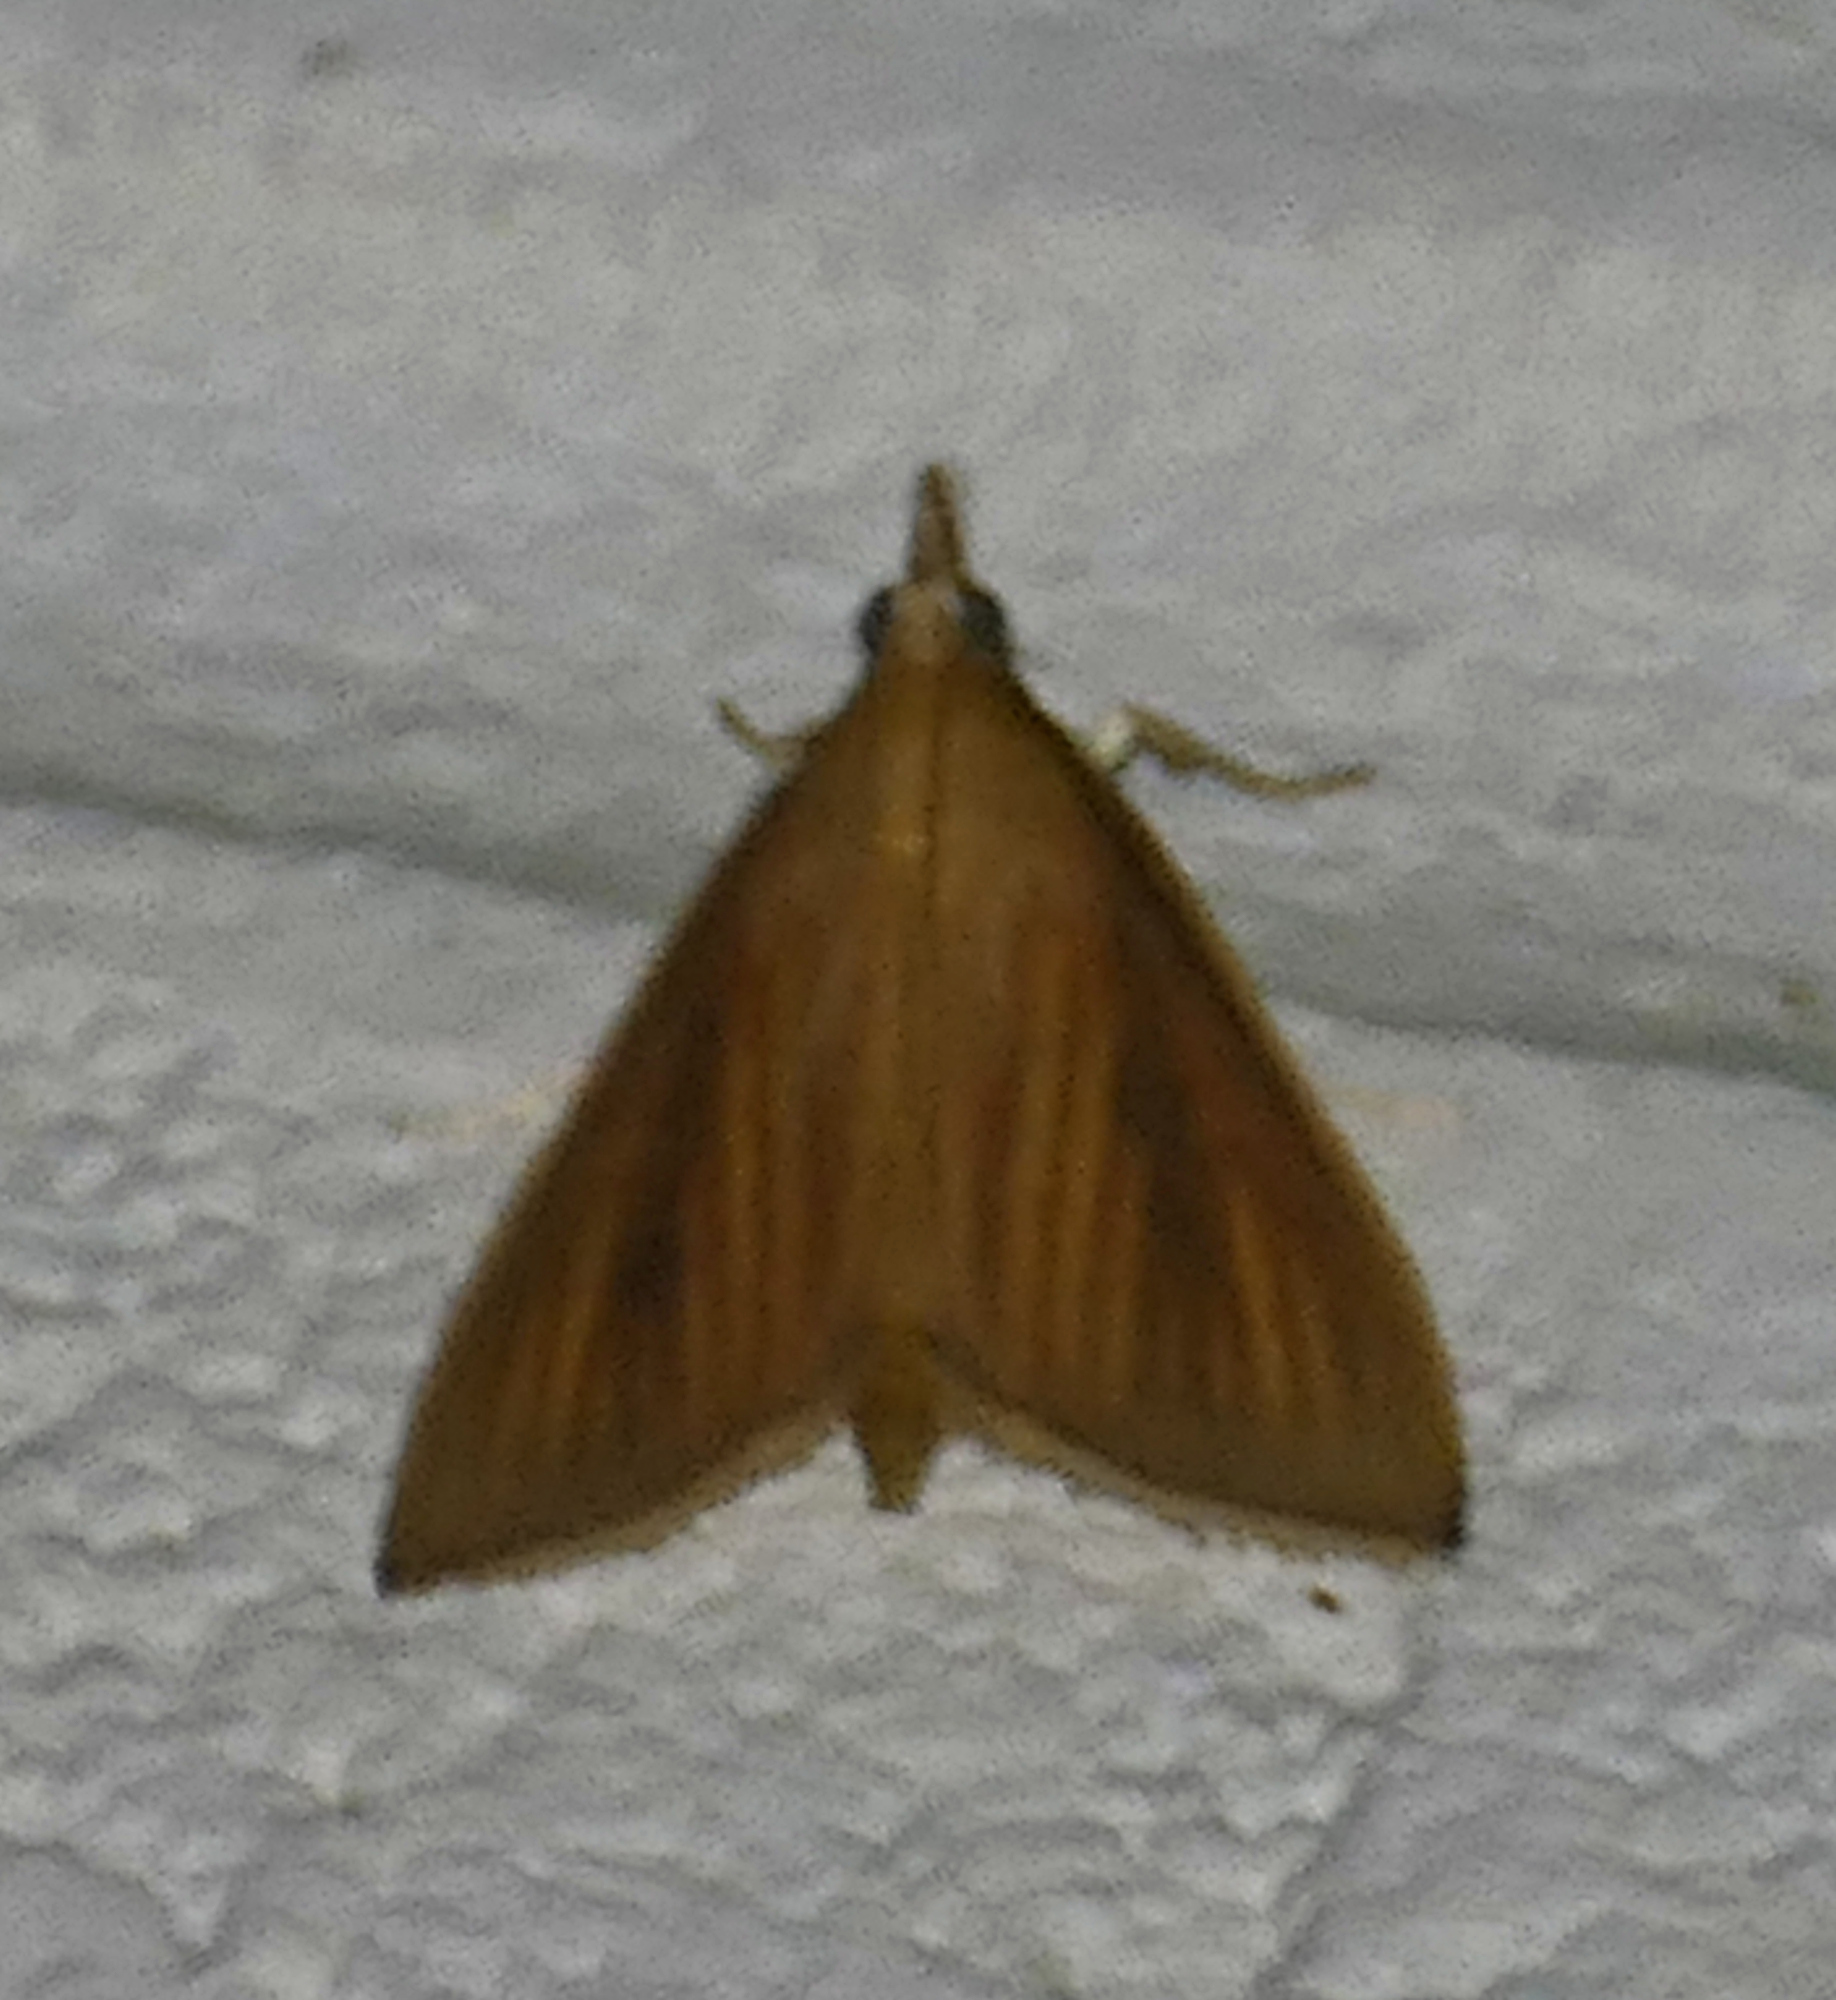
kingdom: Animalia
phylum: Arthropoda
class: Insecta
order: Lepidoptera
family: Crambidae
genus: Nascia
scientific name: Nascia acutellus
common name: Streaked orange moth
